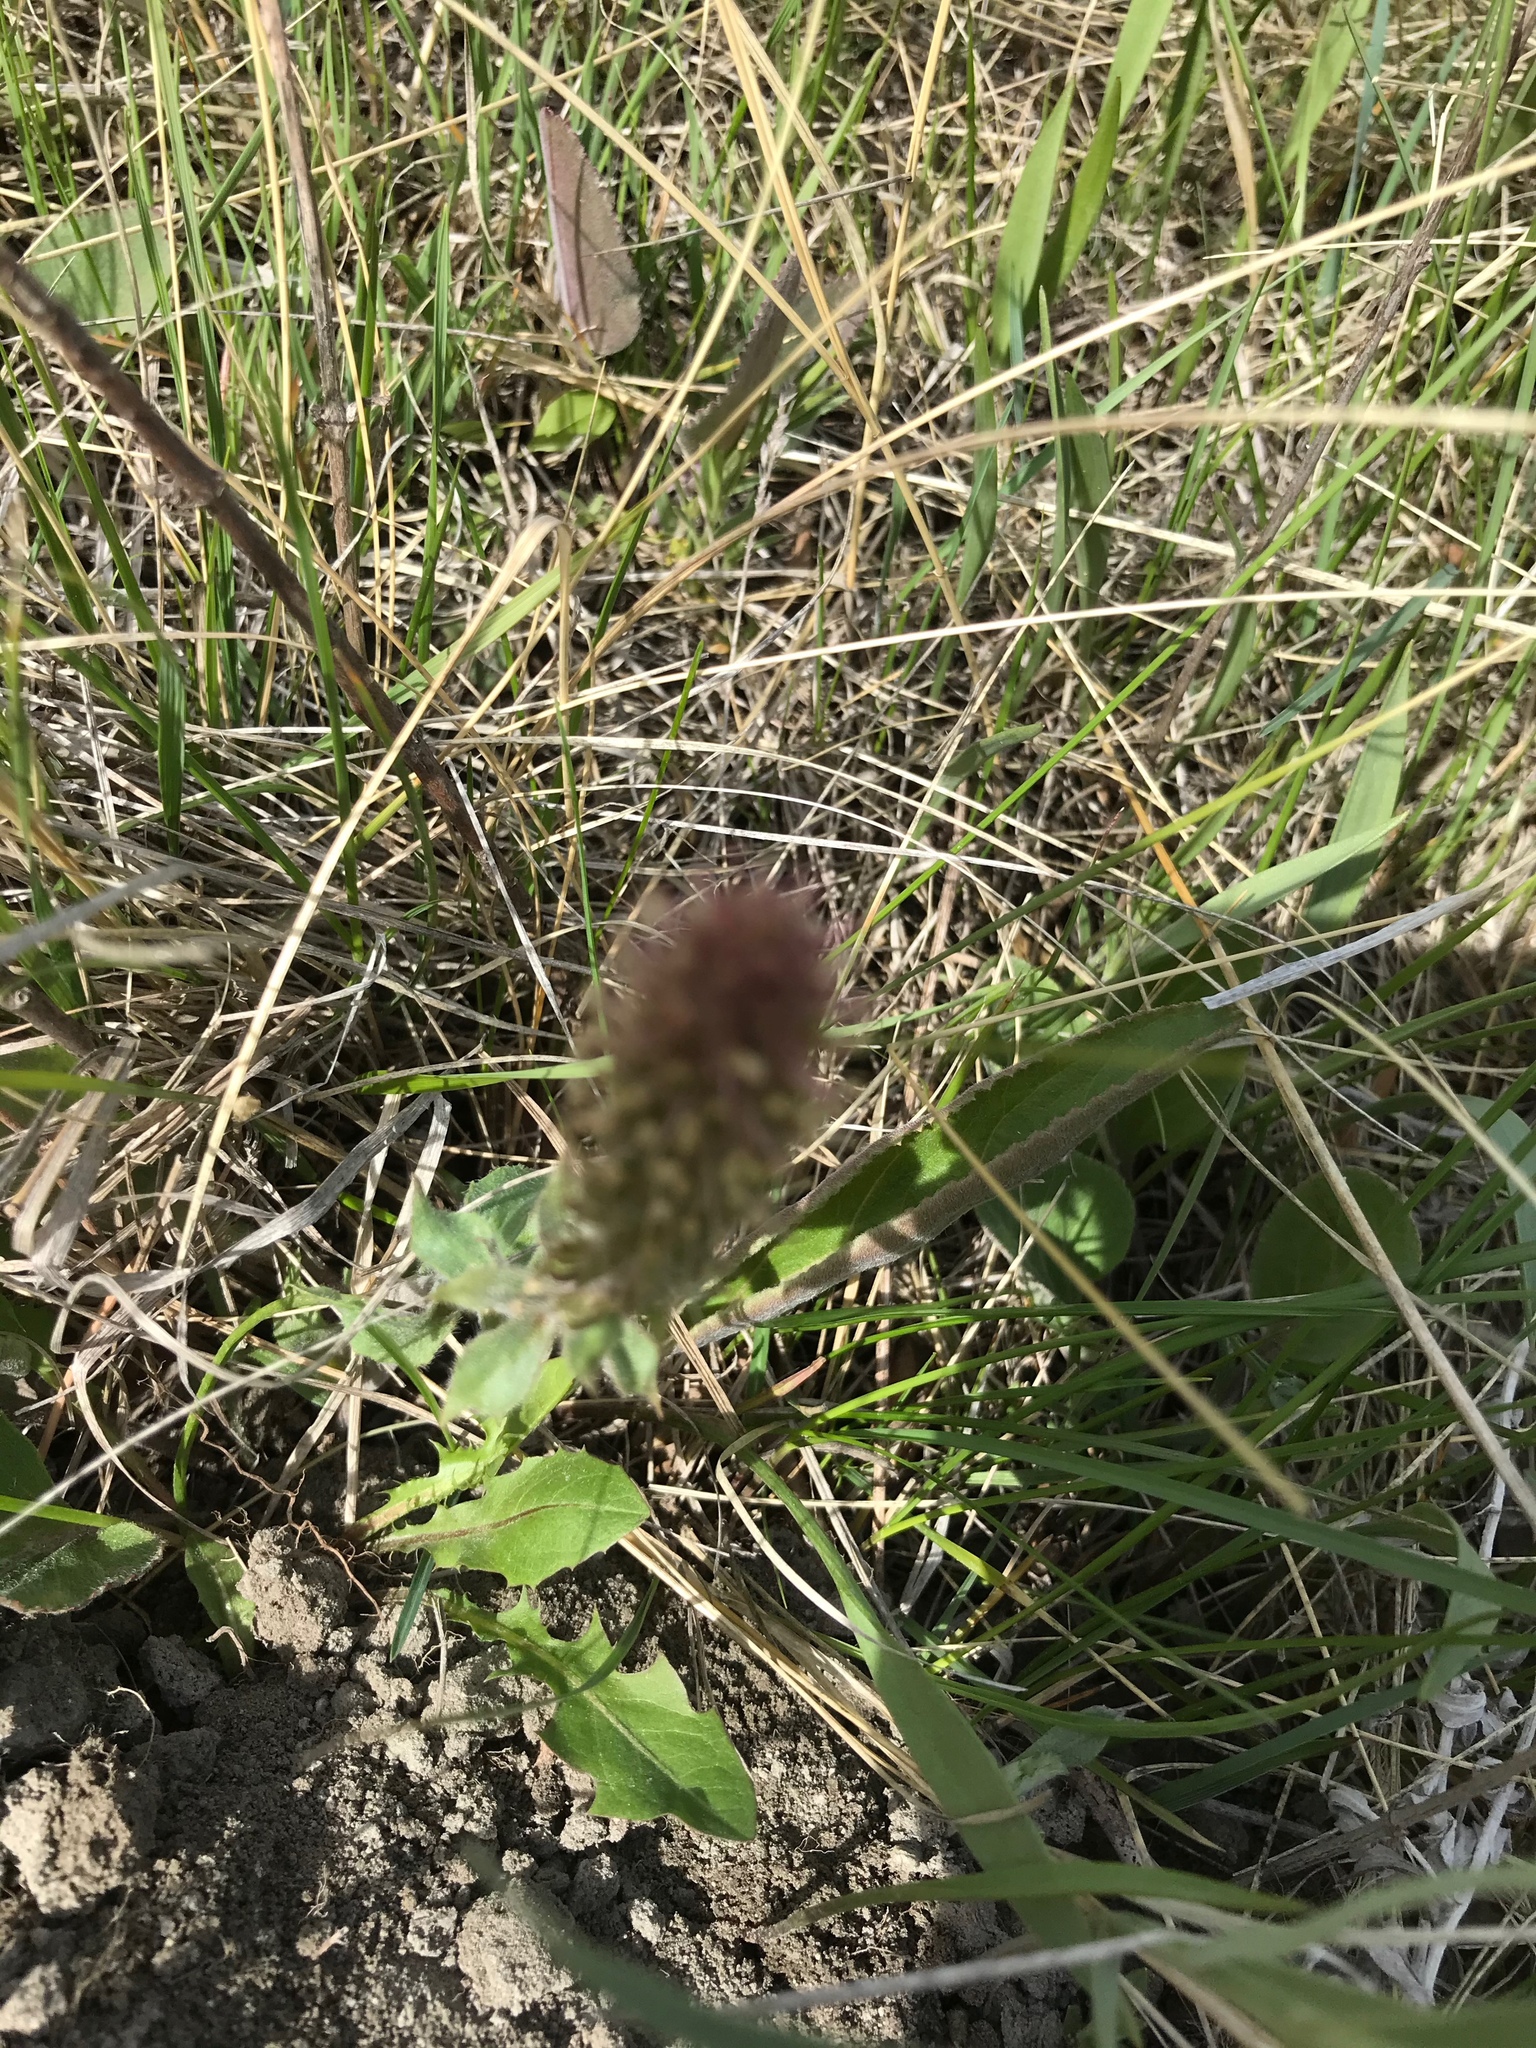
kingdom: Plantae
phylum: Tracheophyta
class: Magnoliopsida
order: Lamiales
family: Plantaginaceae
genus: Synthyris
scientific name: Synthyris wyomingensis
